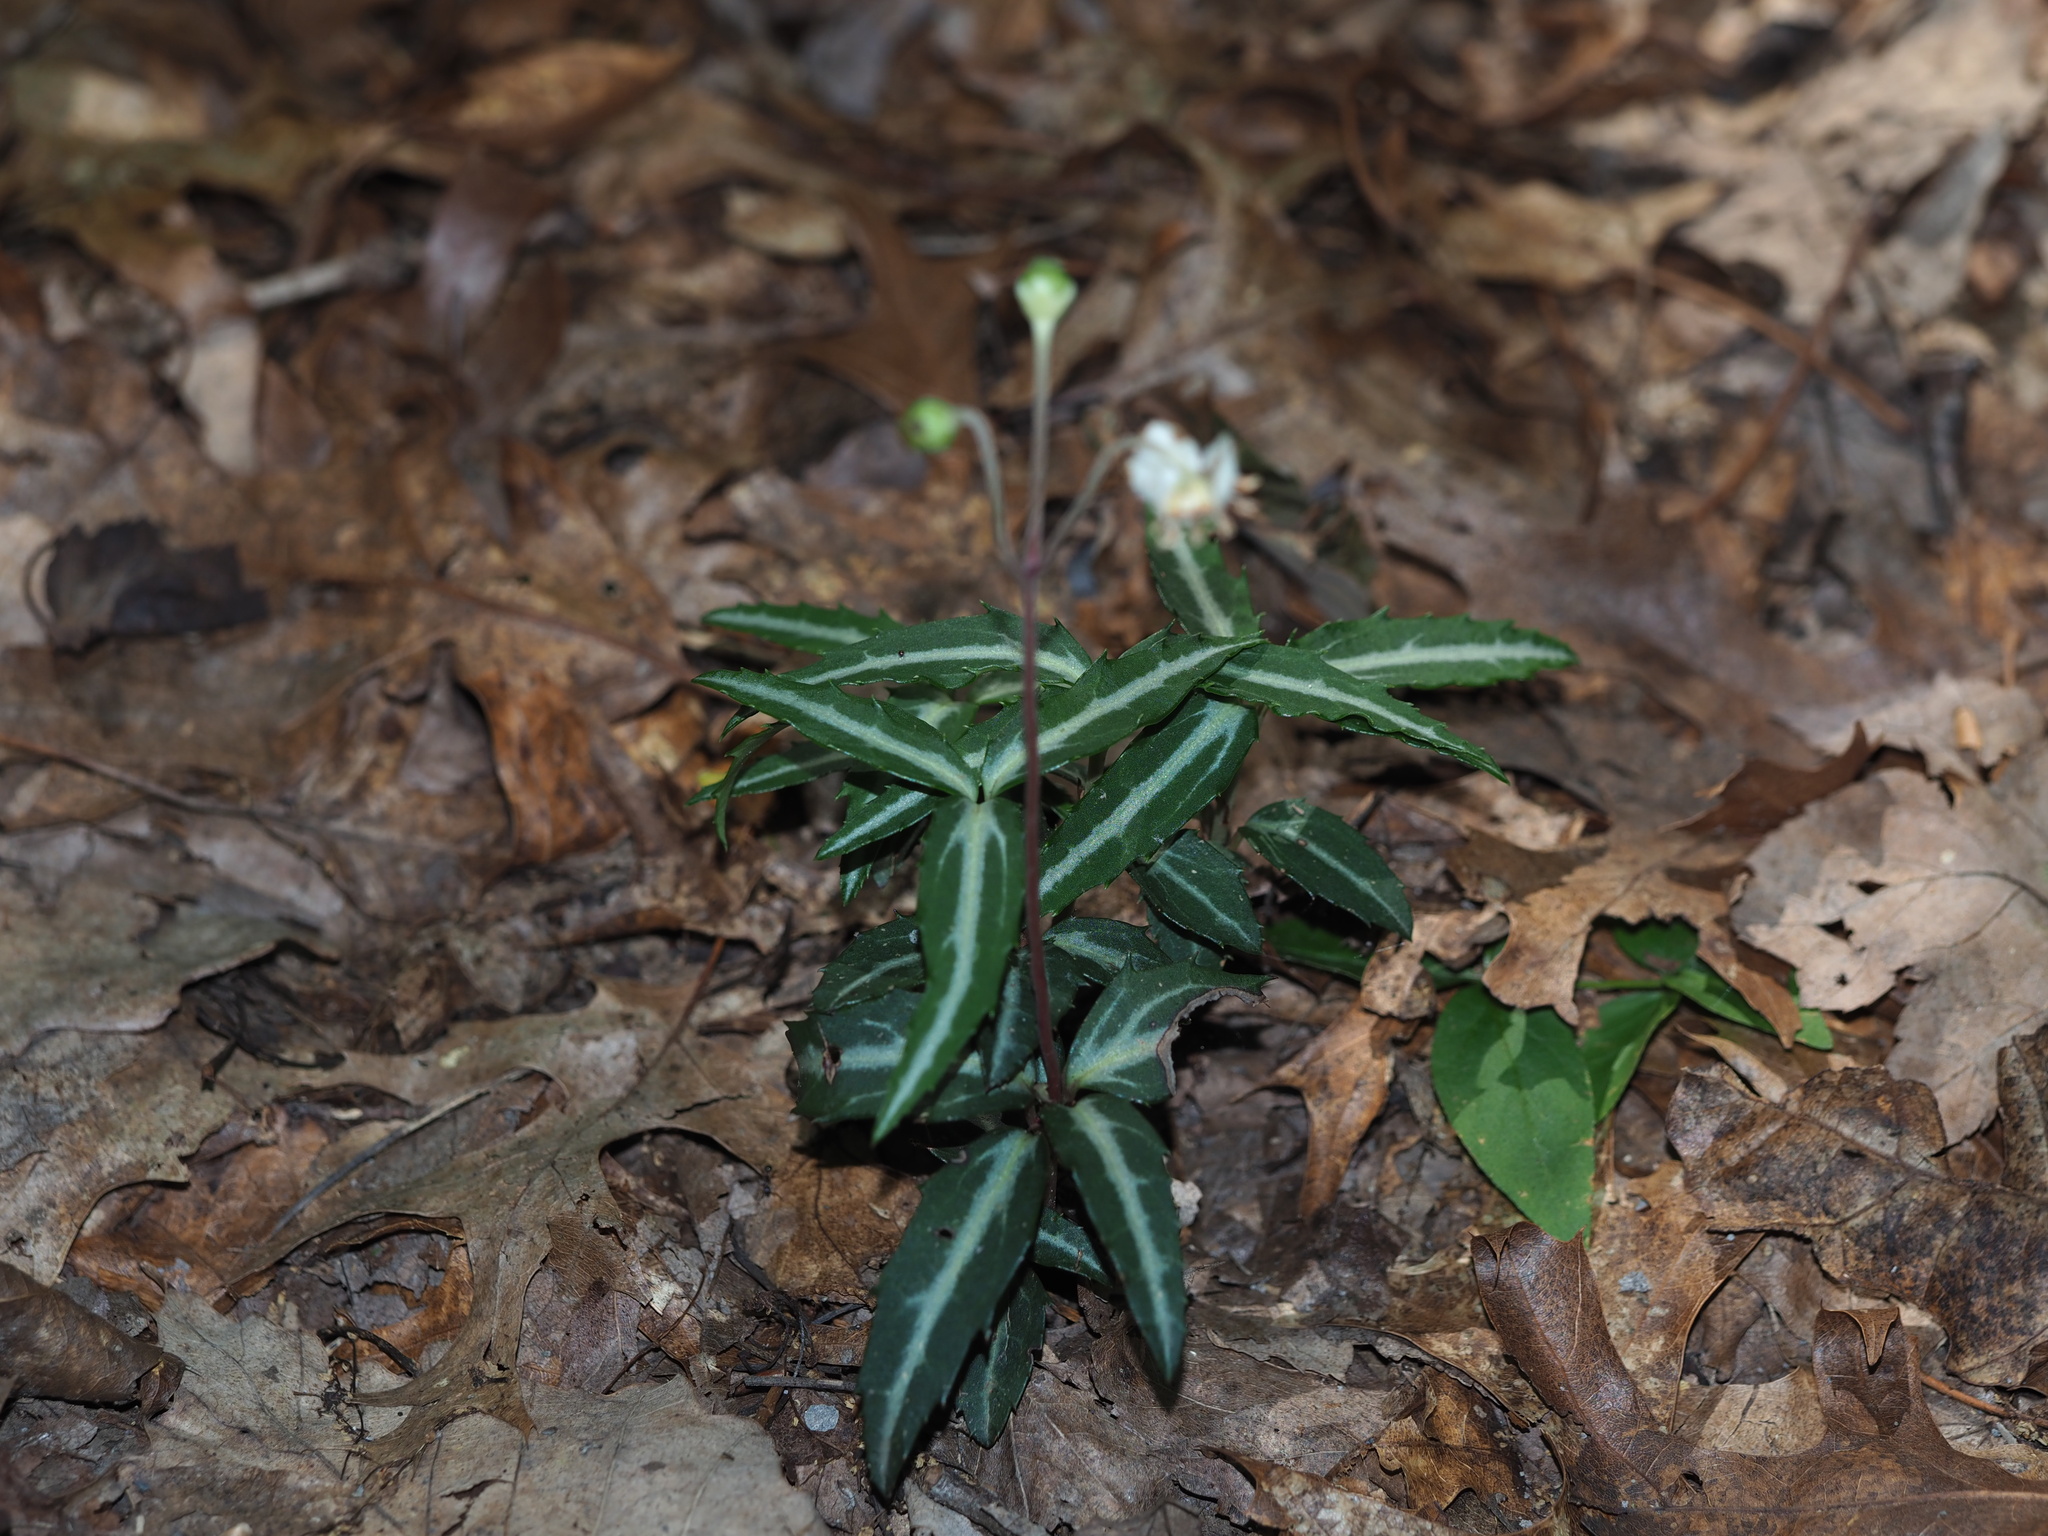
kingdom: Plantae
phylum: Tracheophyta
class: Magnoliopsida
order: Ericales
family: Ericaceae
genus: Chimaphila
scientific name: Chimaphila maculata
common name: Spotted pipsissewa
